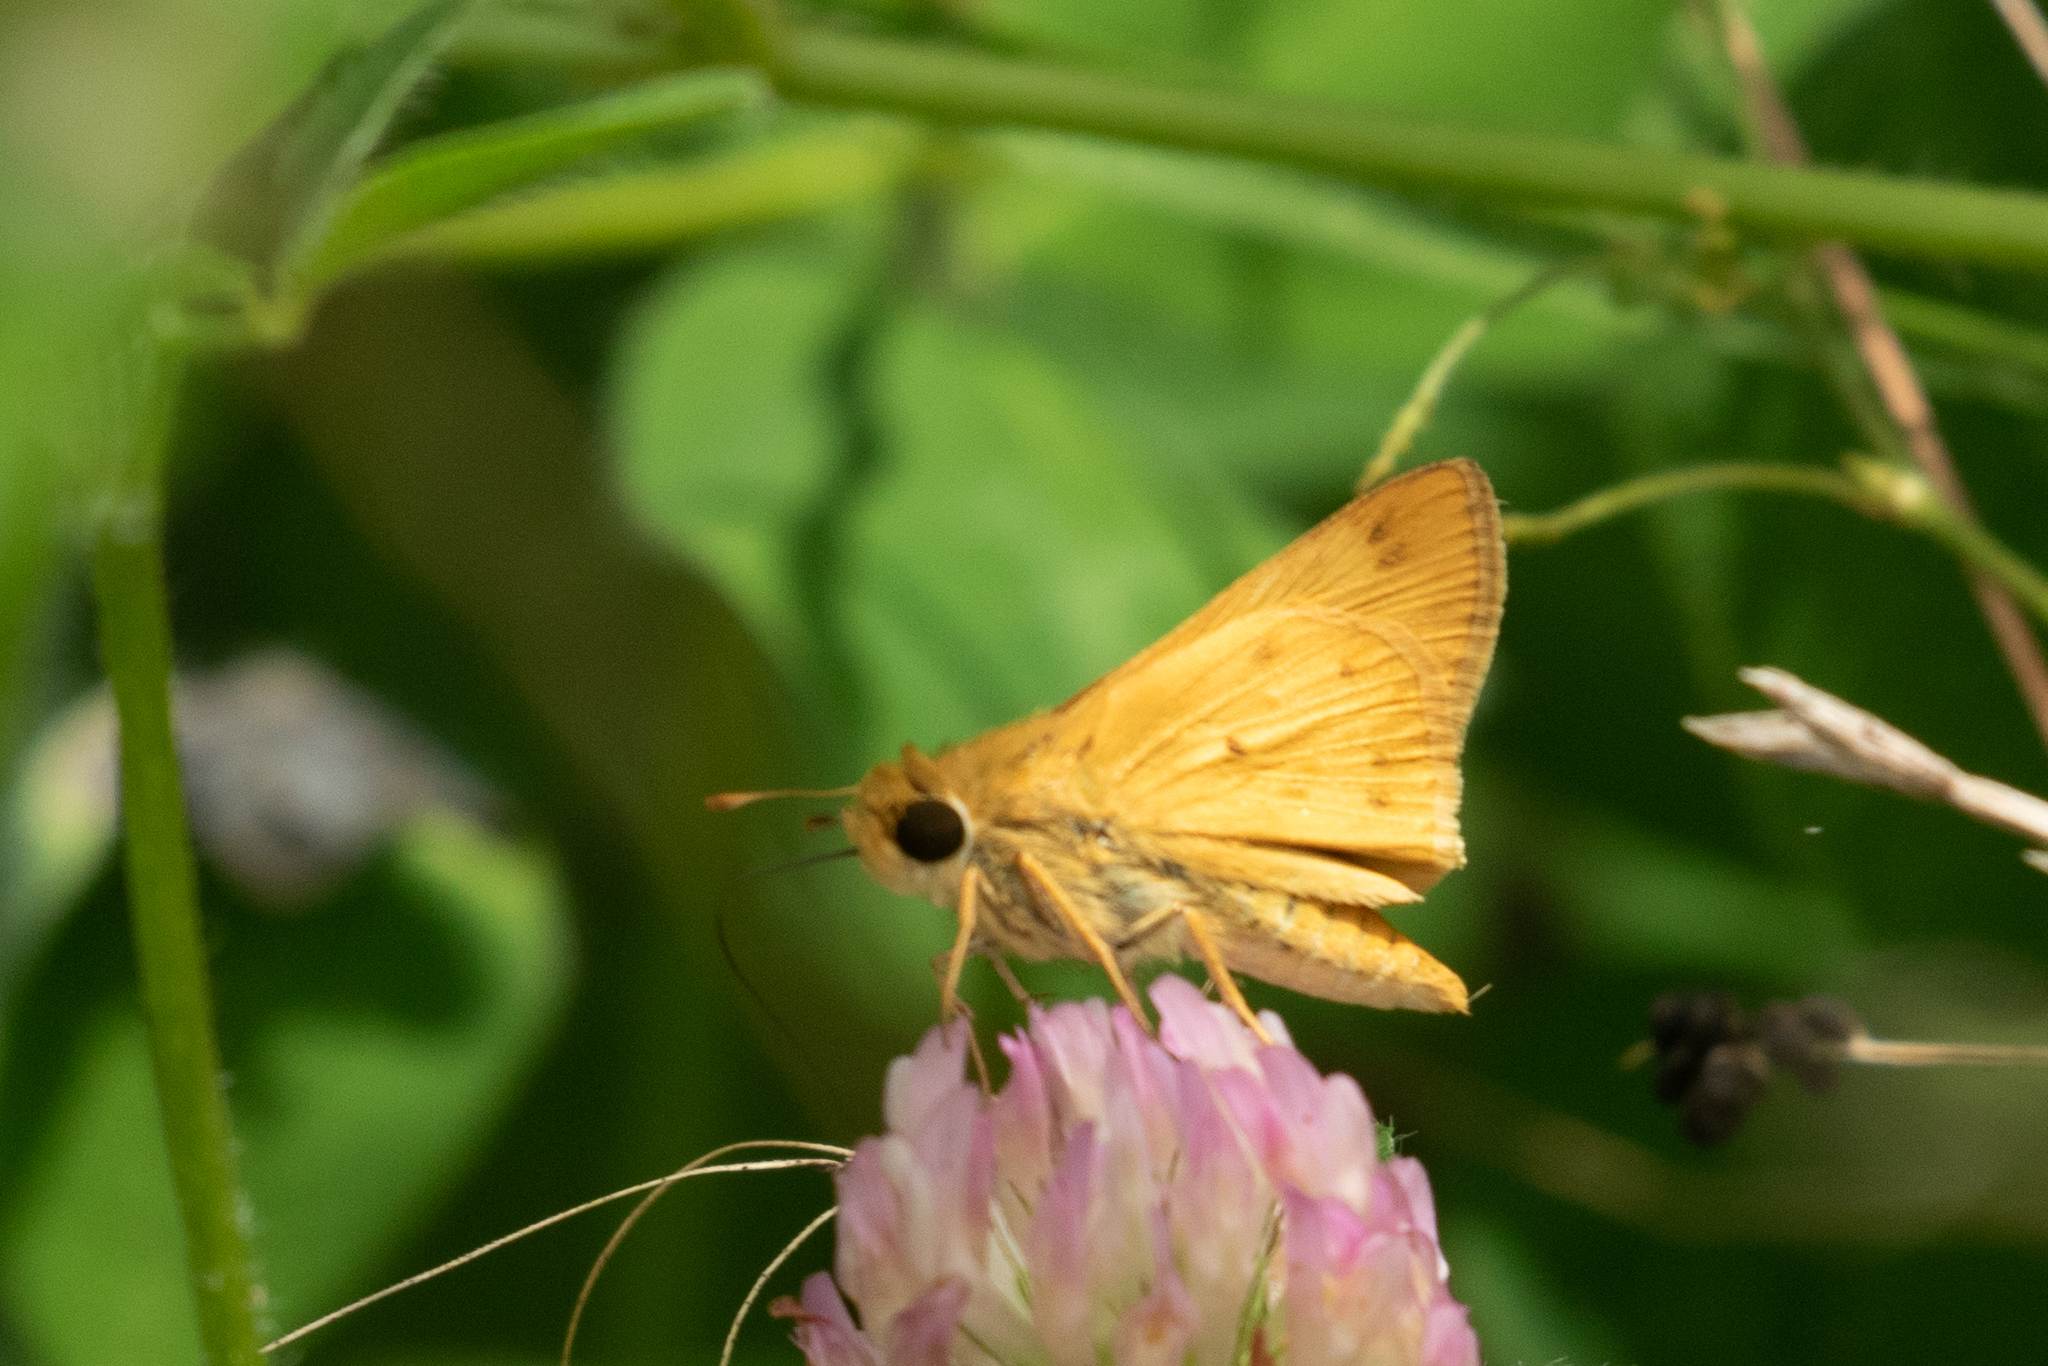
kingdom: Animalia
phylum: Arthropoda
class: Insecta
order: Lepidoptera
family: Hesperiidae
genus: Hylephila
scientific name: Hylephila phyleus
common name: Fiery skipper
